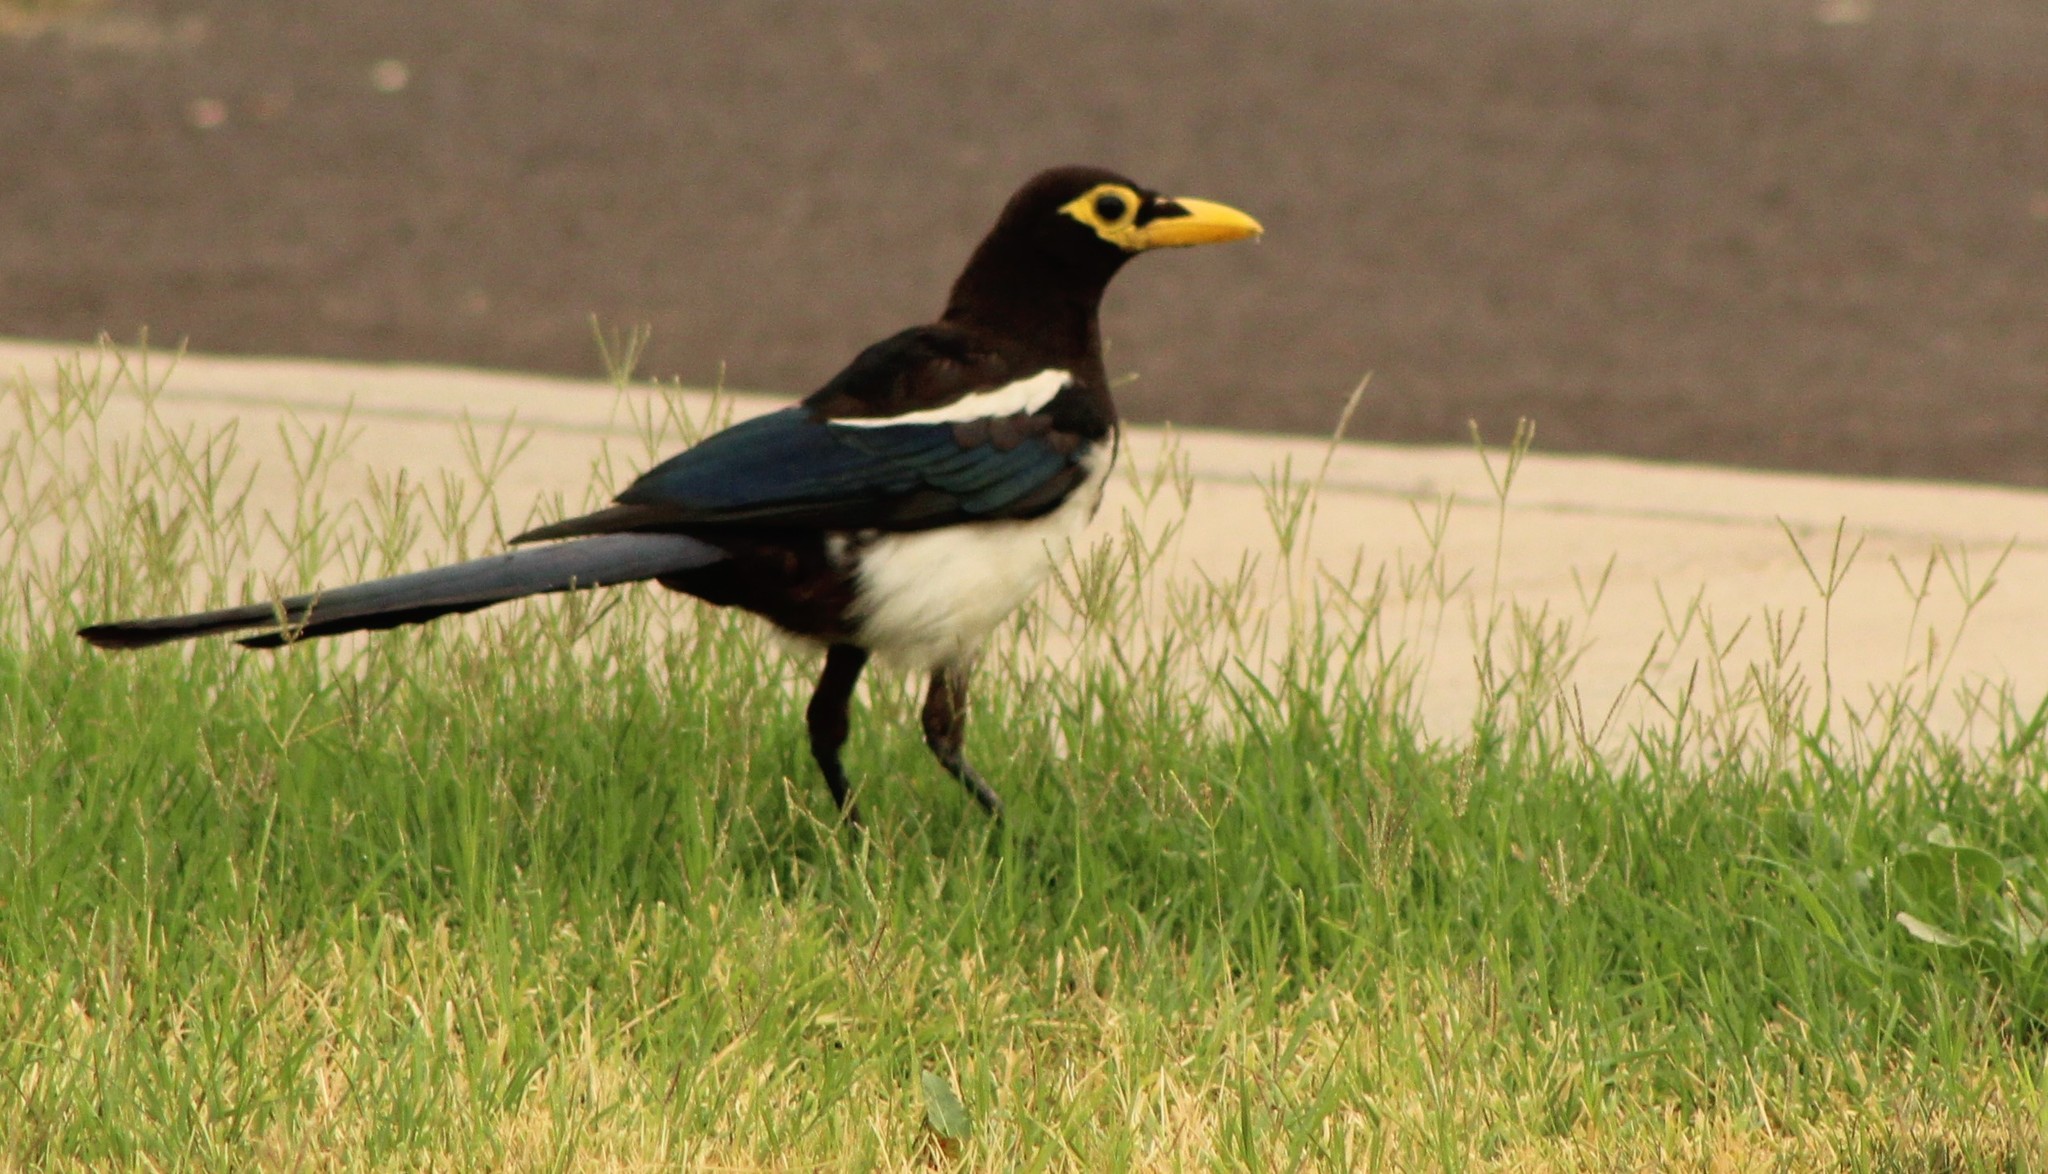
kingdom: Animalia
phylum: Chordata
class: Aves
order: Passeriformes
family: Corvidae
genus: Pica
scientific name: Pica nuttalli
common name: Yellow-billed magpie
